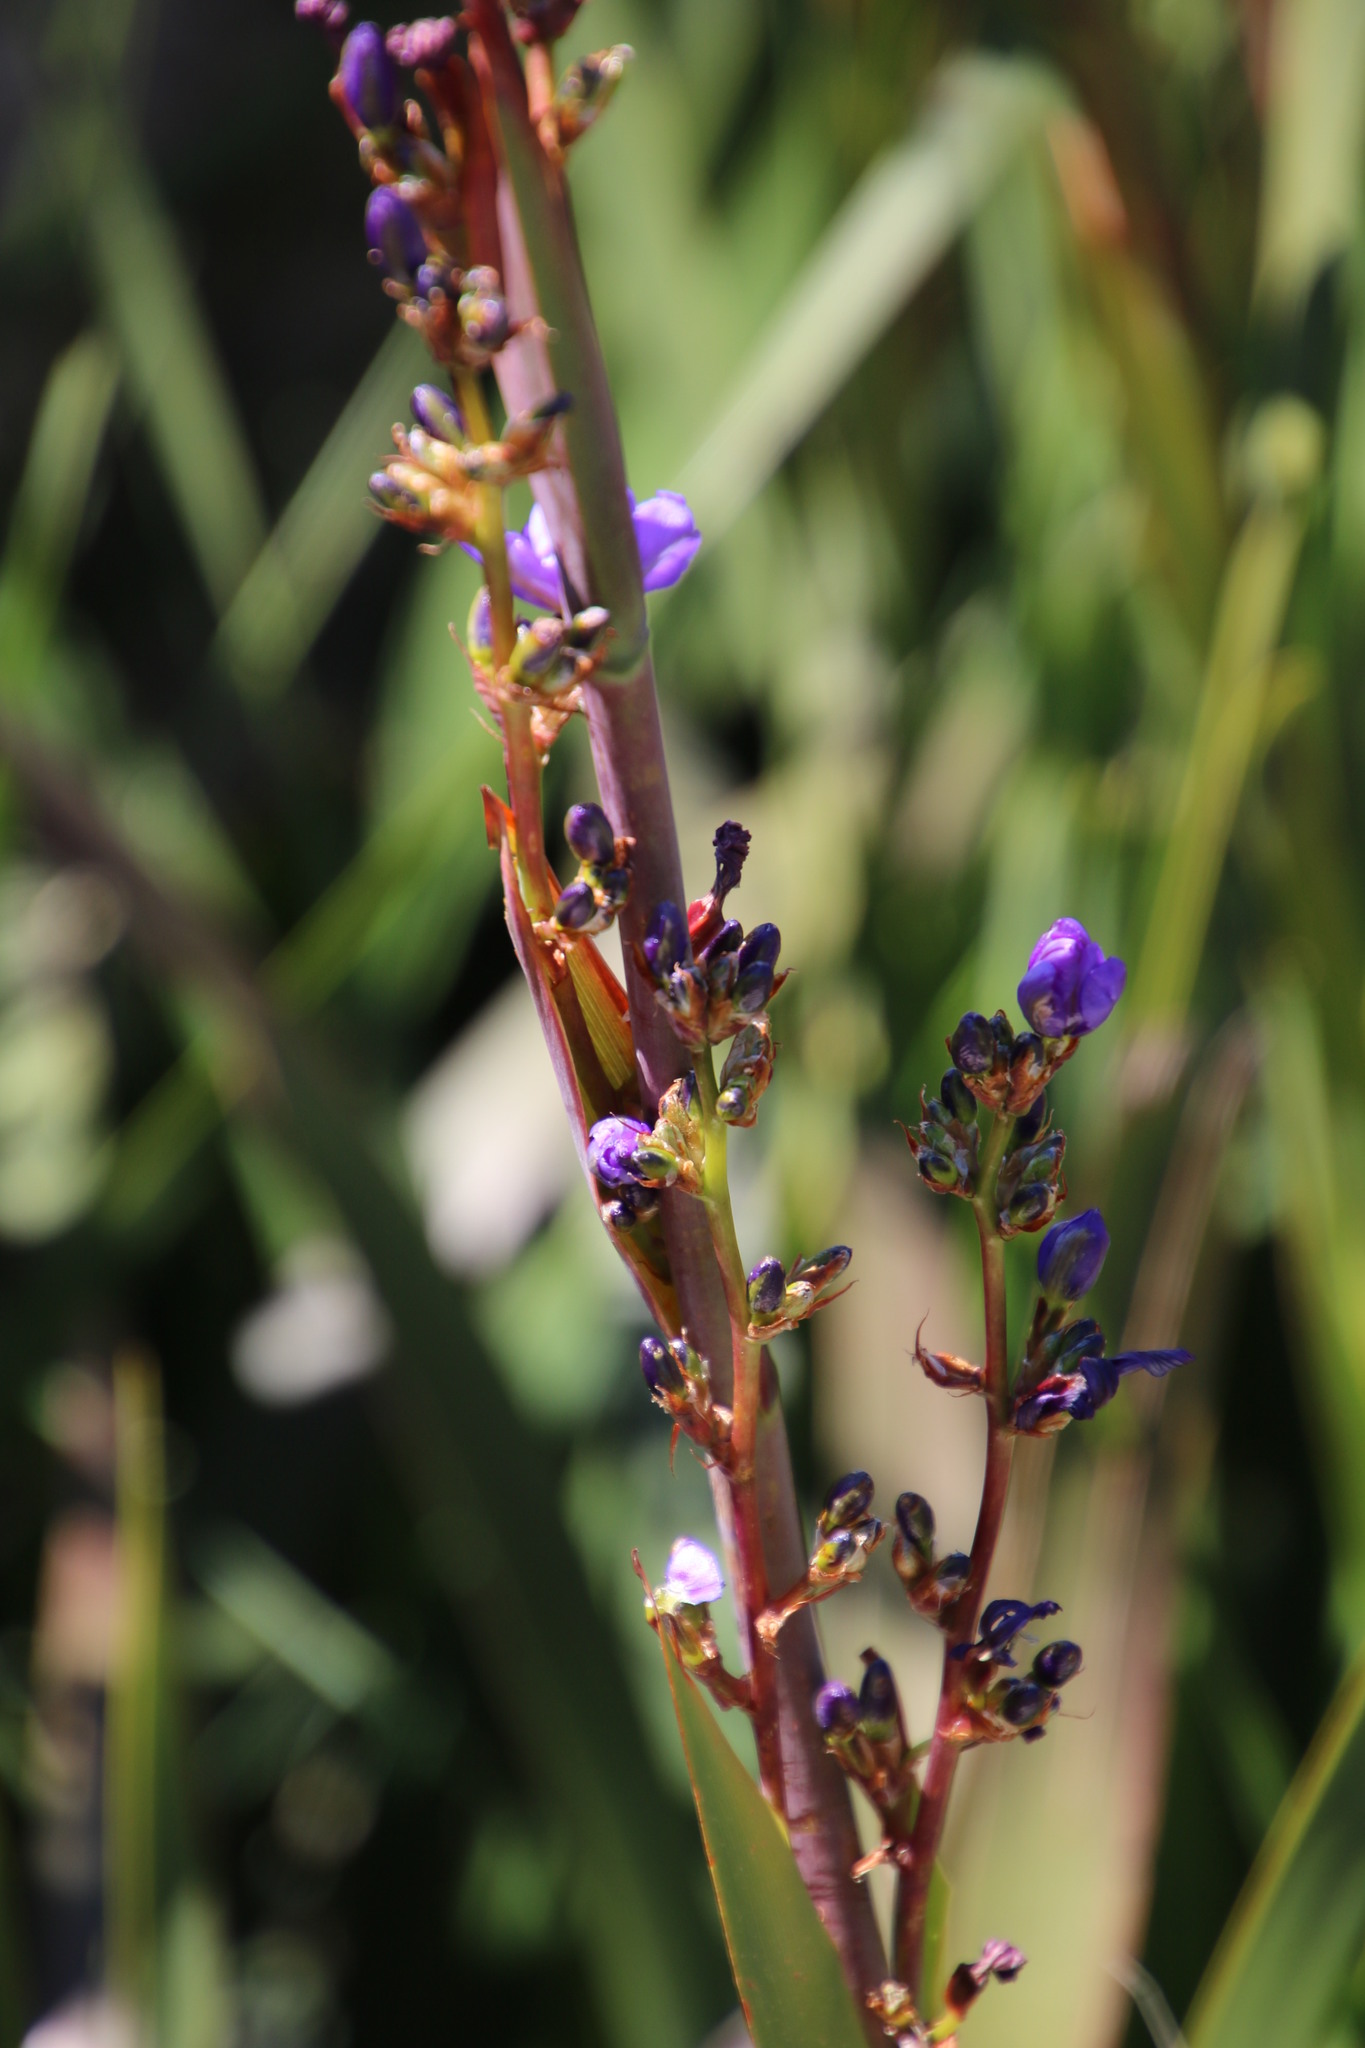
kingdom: Plantae
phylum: Tracheophyta
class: Liliopsida
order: Asparagales
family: Iridaceae
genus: Aristea
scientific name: Aristea bakeri
